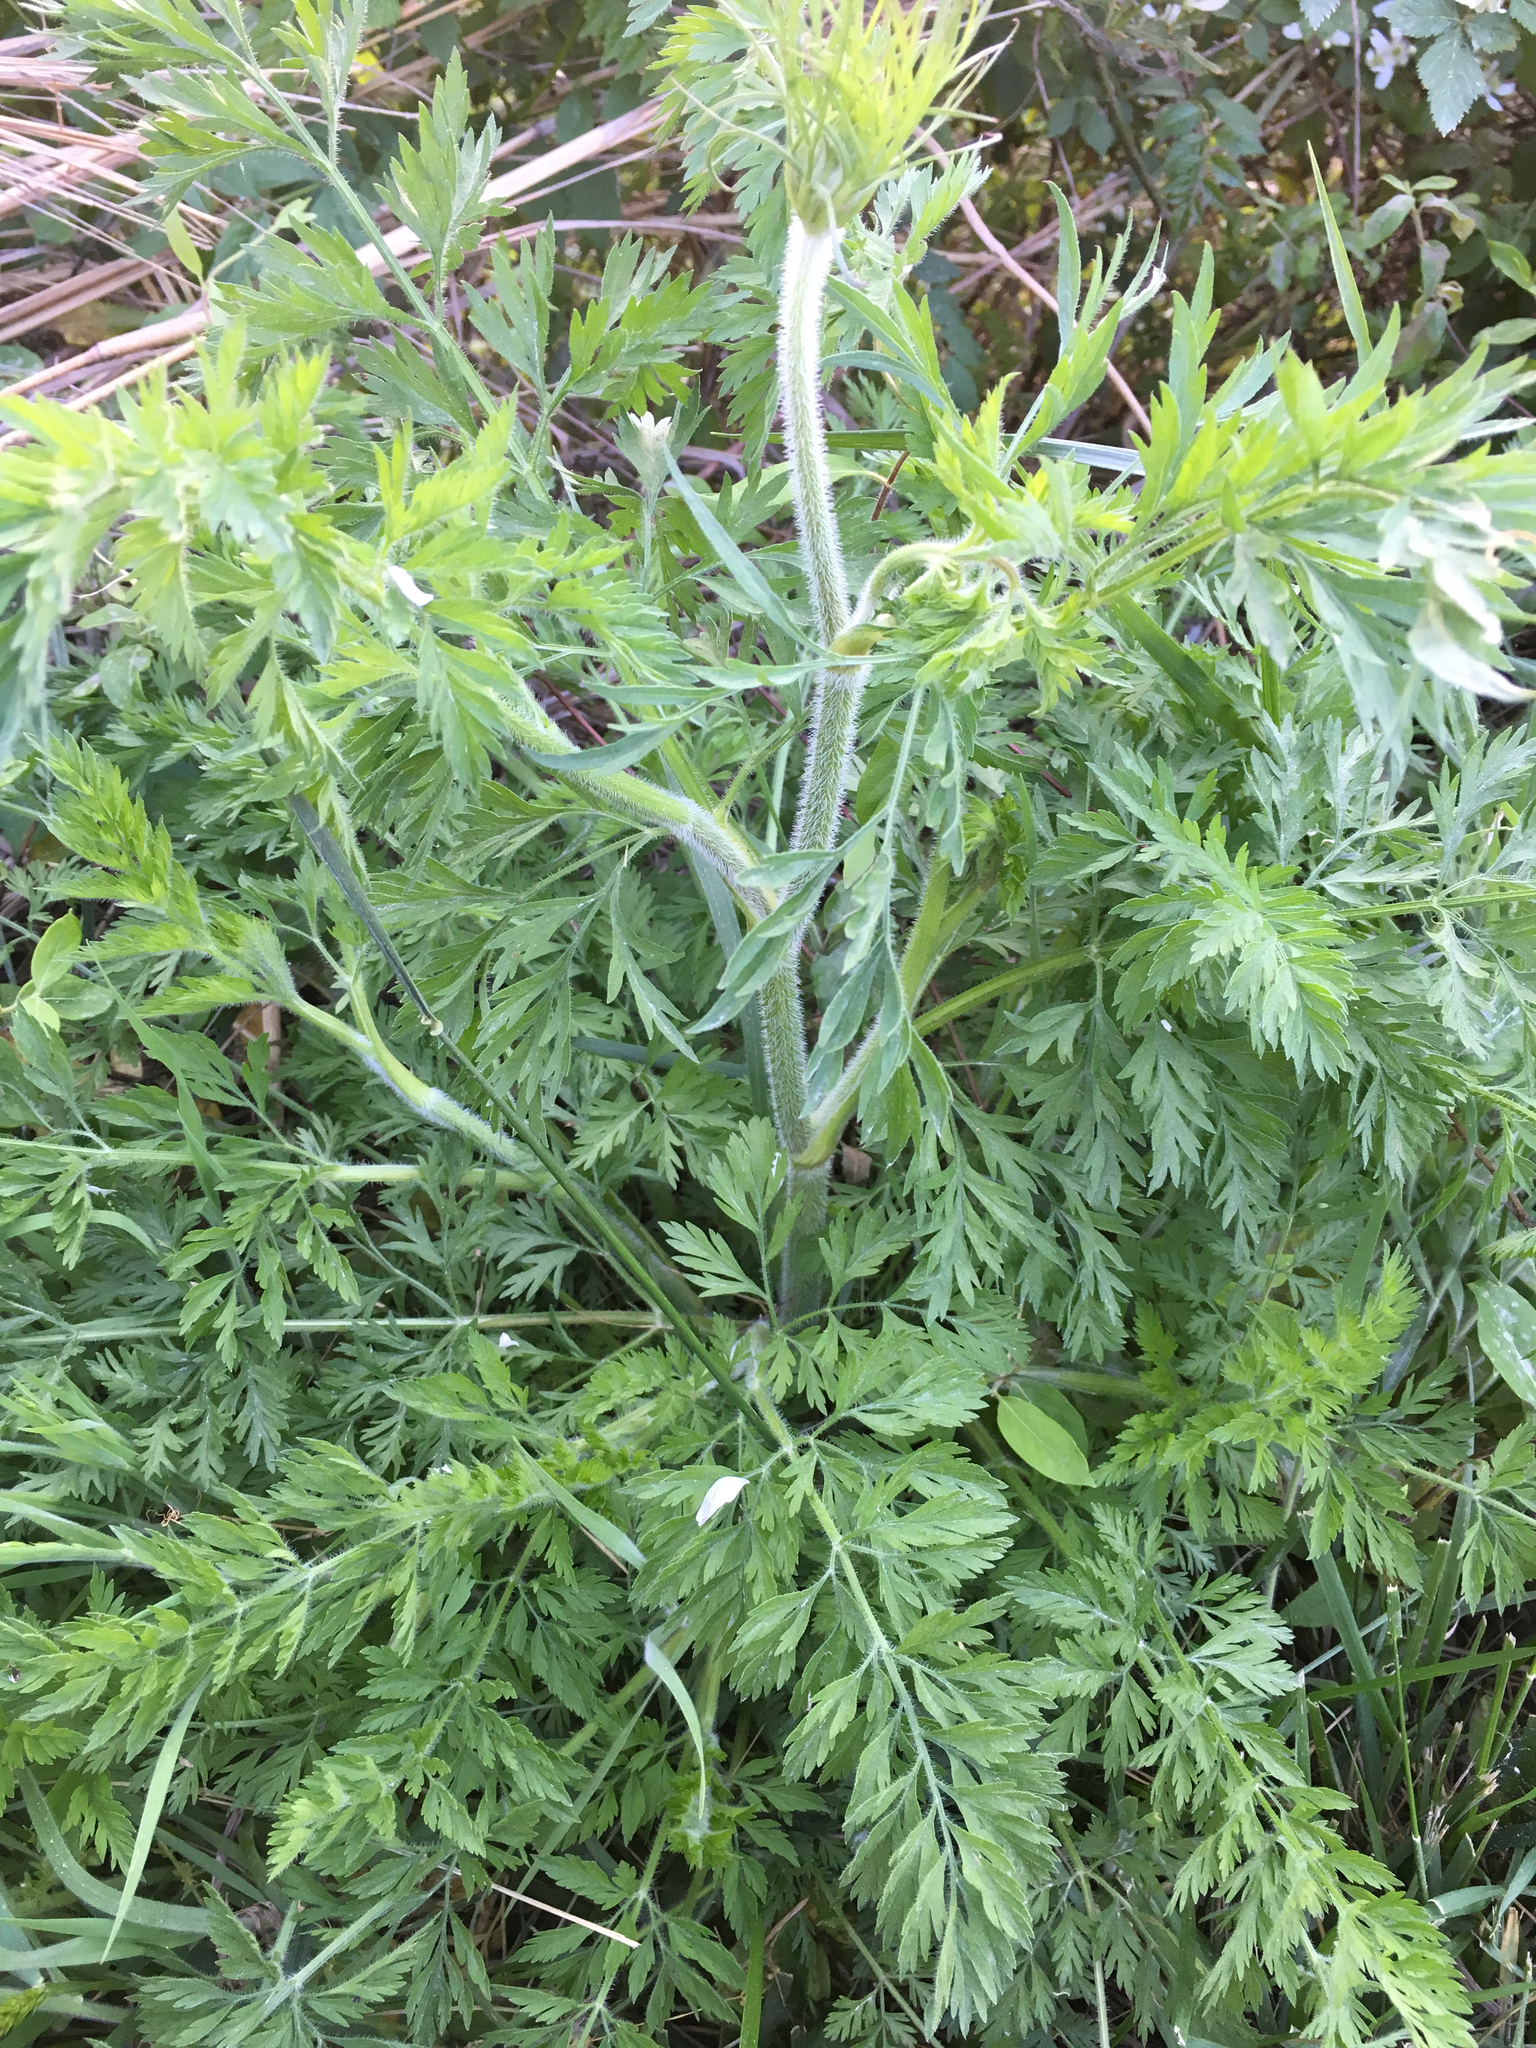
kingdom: Plantae
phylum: Tracheophyta
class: Magnoliopsida
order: Apiales
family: Apiaceae
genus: Daucus
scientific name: Daucus carota
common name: Wild carrot
